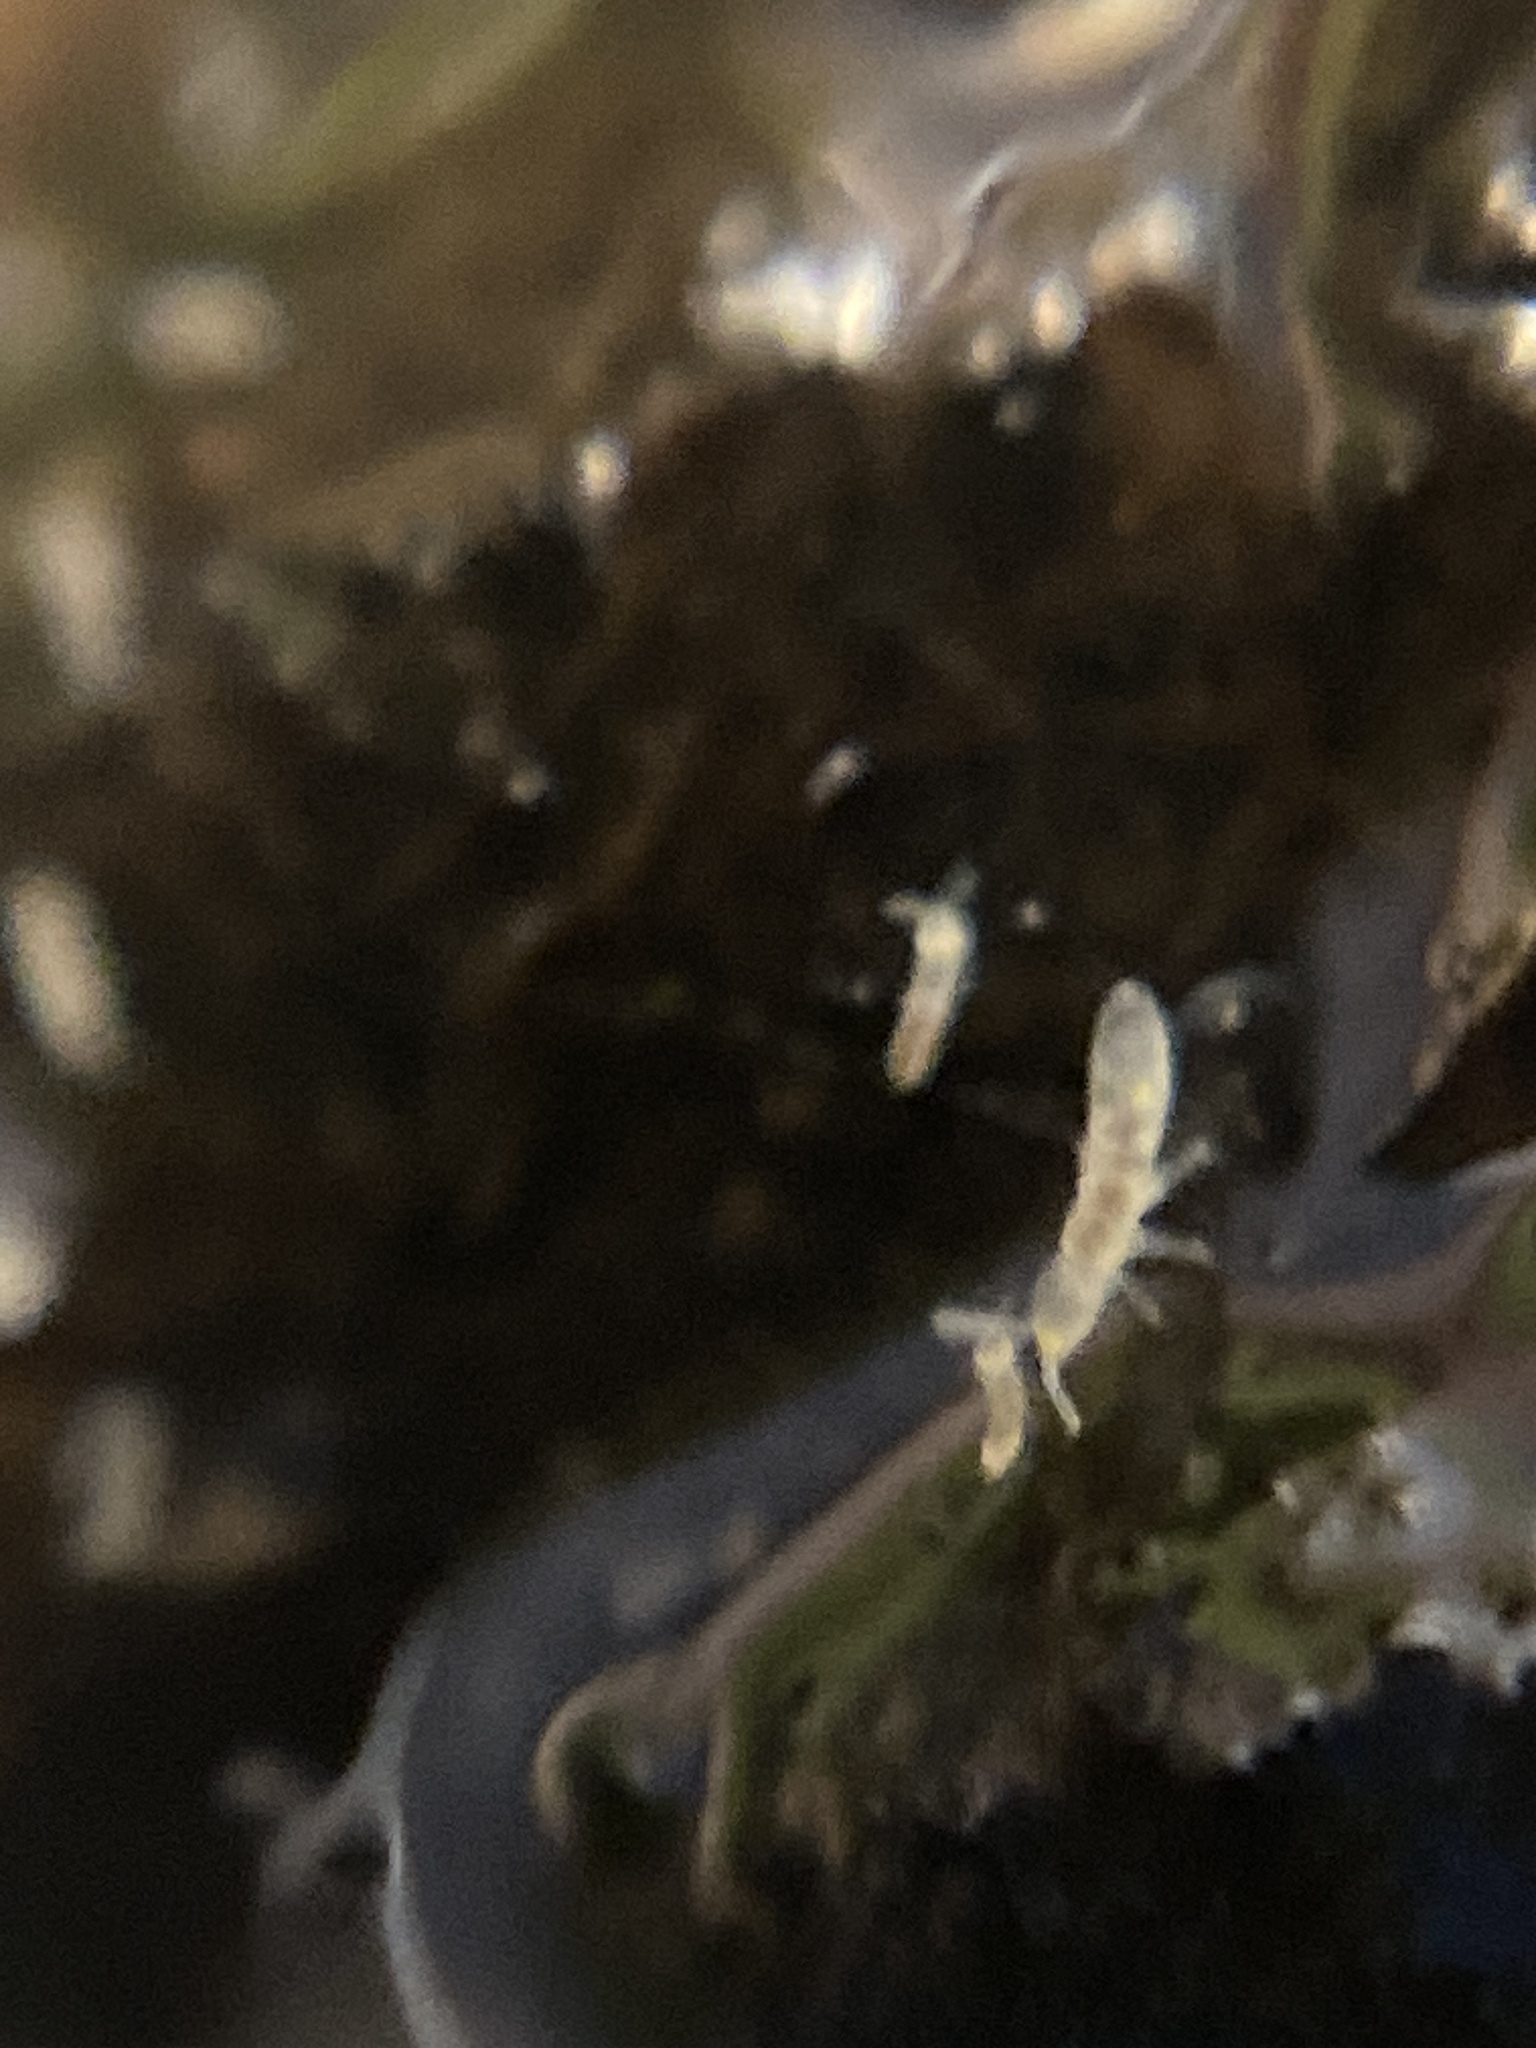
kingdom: Animalia
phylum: Arthropoda
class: Collembola
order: Entomobryomorpha
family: Isotomidae
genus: Folsomia
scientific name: Folsomia candida
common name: Springtail
